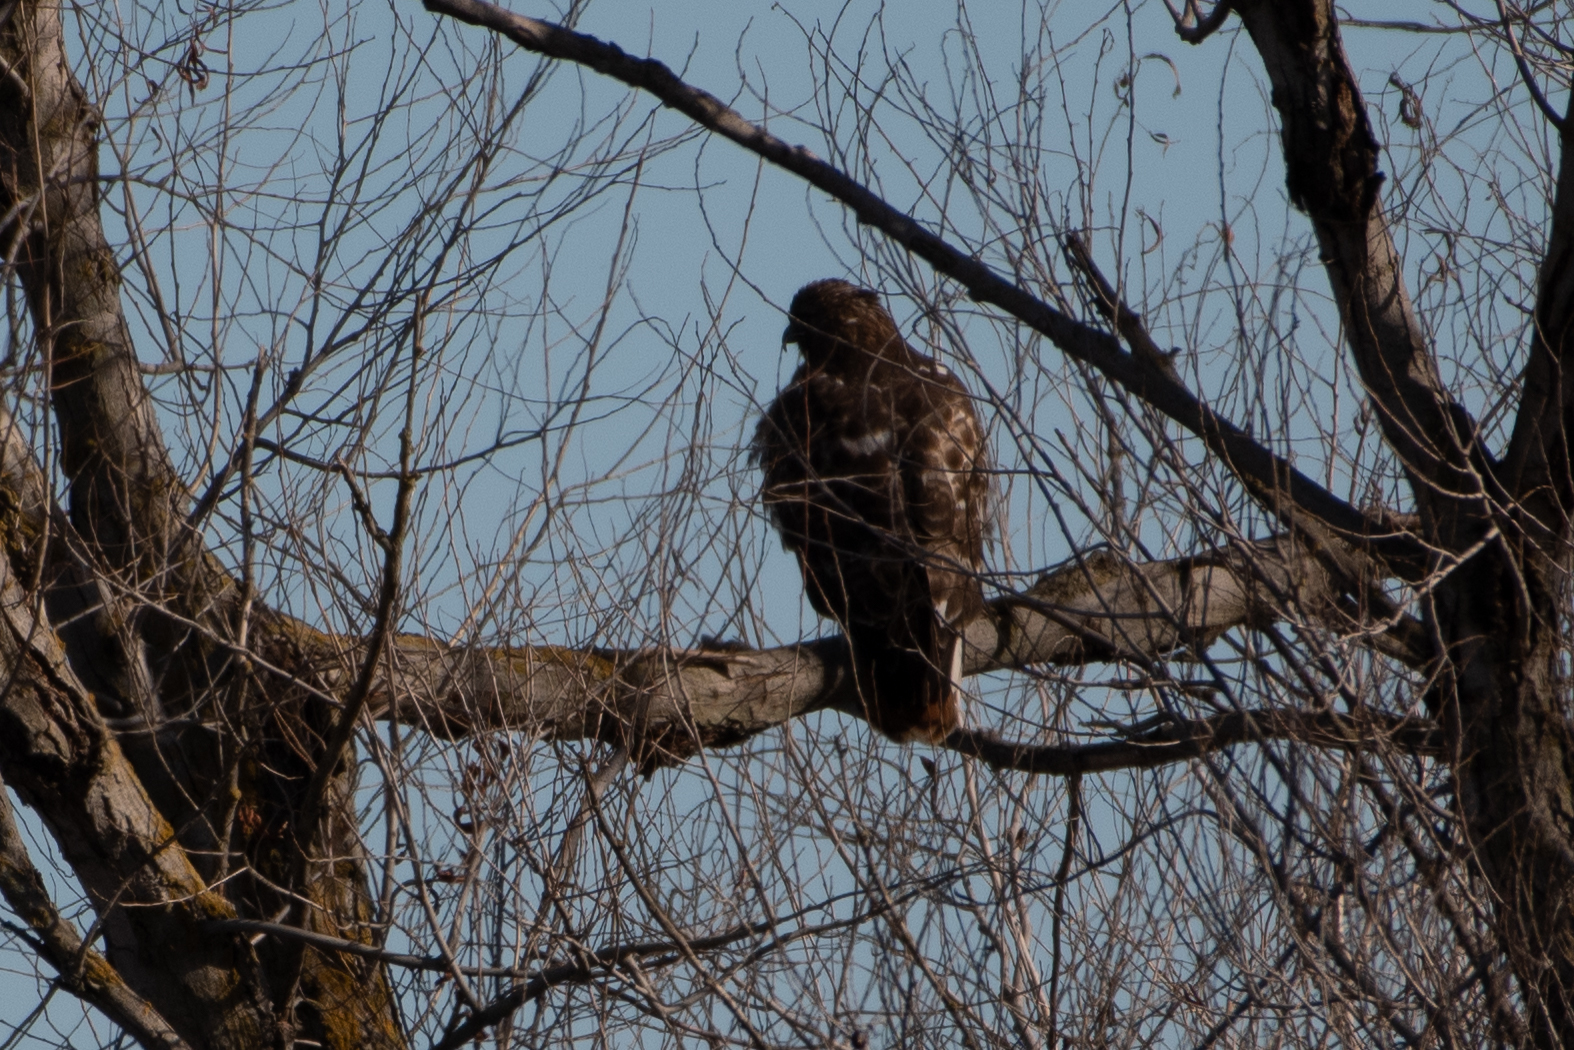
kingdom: Animalia
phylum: Chordata
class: Aves
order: Accipitriformes
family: Accipitridae
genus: Buteo
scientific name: Buteo jamaicensis
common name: Red-tailed hawk
